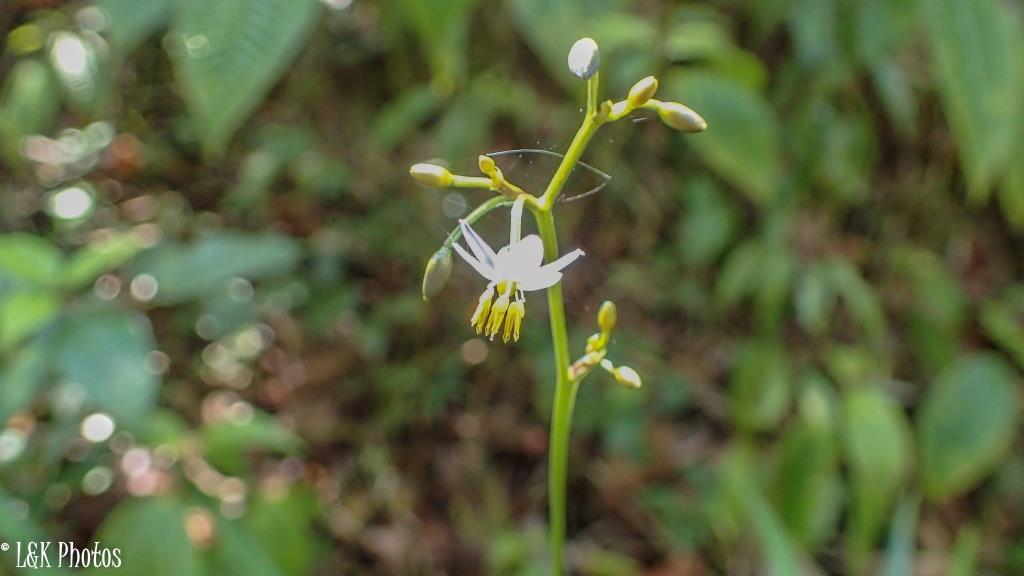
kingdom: Plantae
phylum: Tracheophyta
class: Liliopsida
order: Asparagales
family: Asphodelaceae
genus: Dianella
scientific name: Dianella ensifolia
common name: New zealand lilyplant
